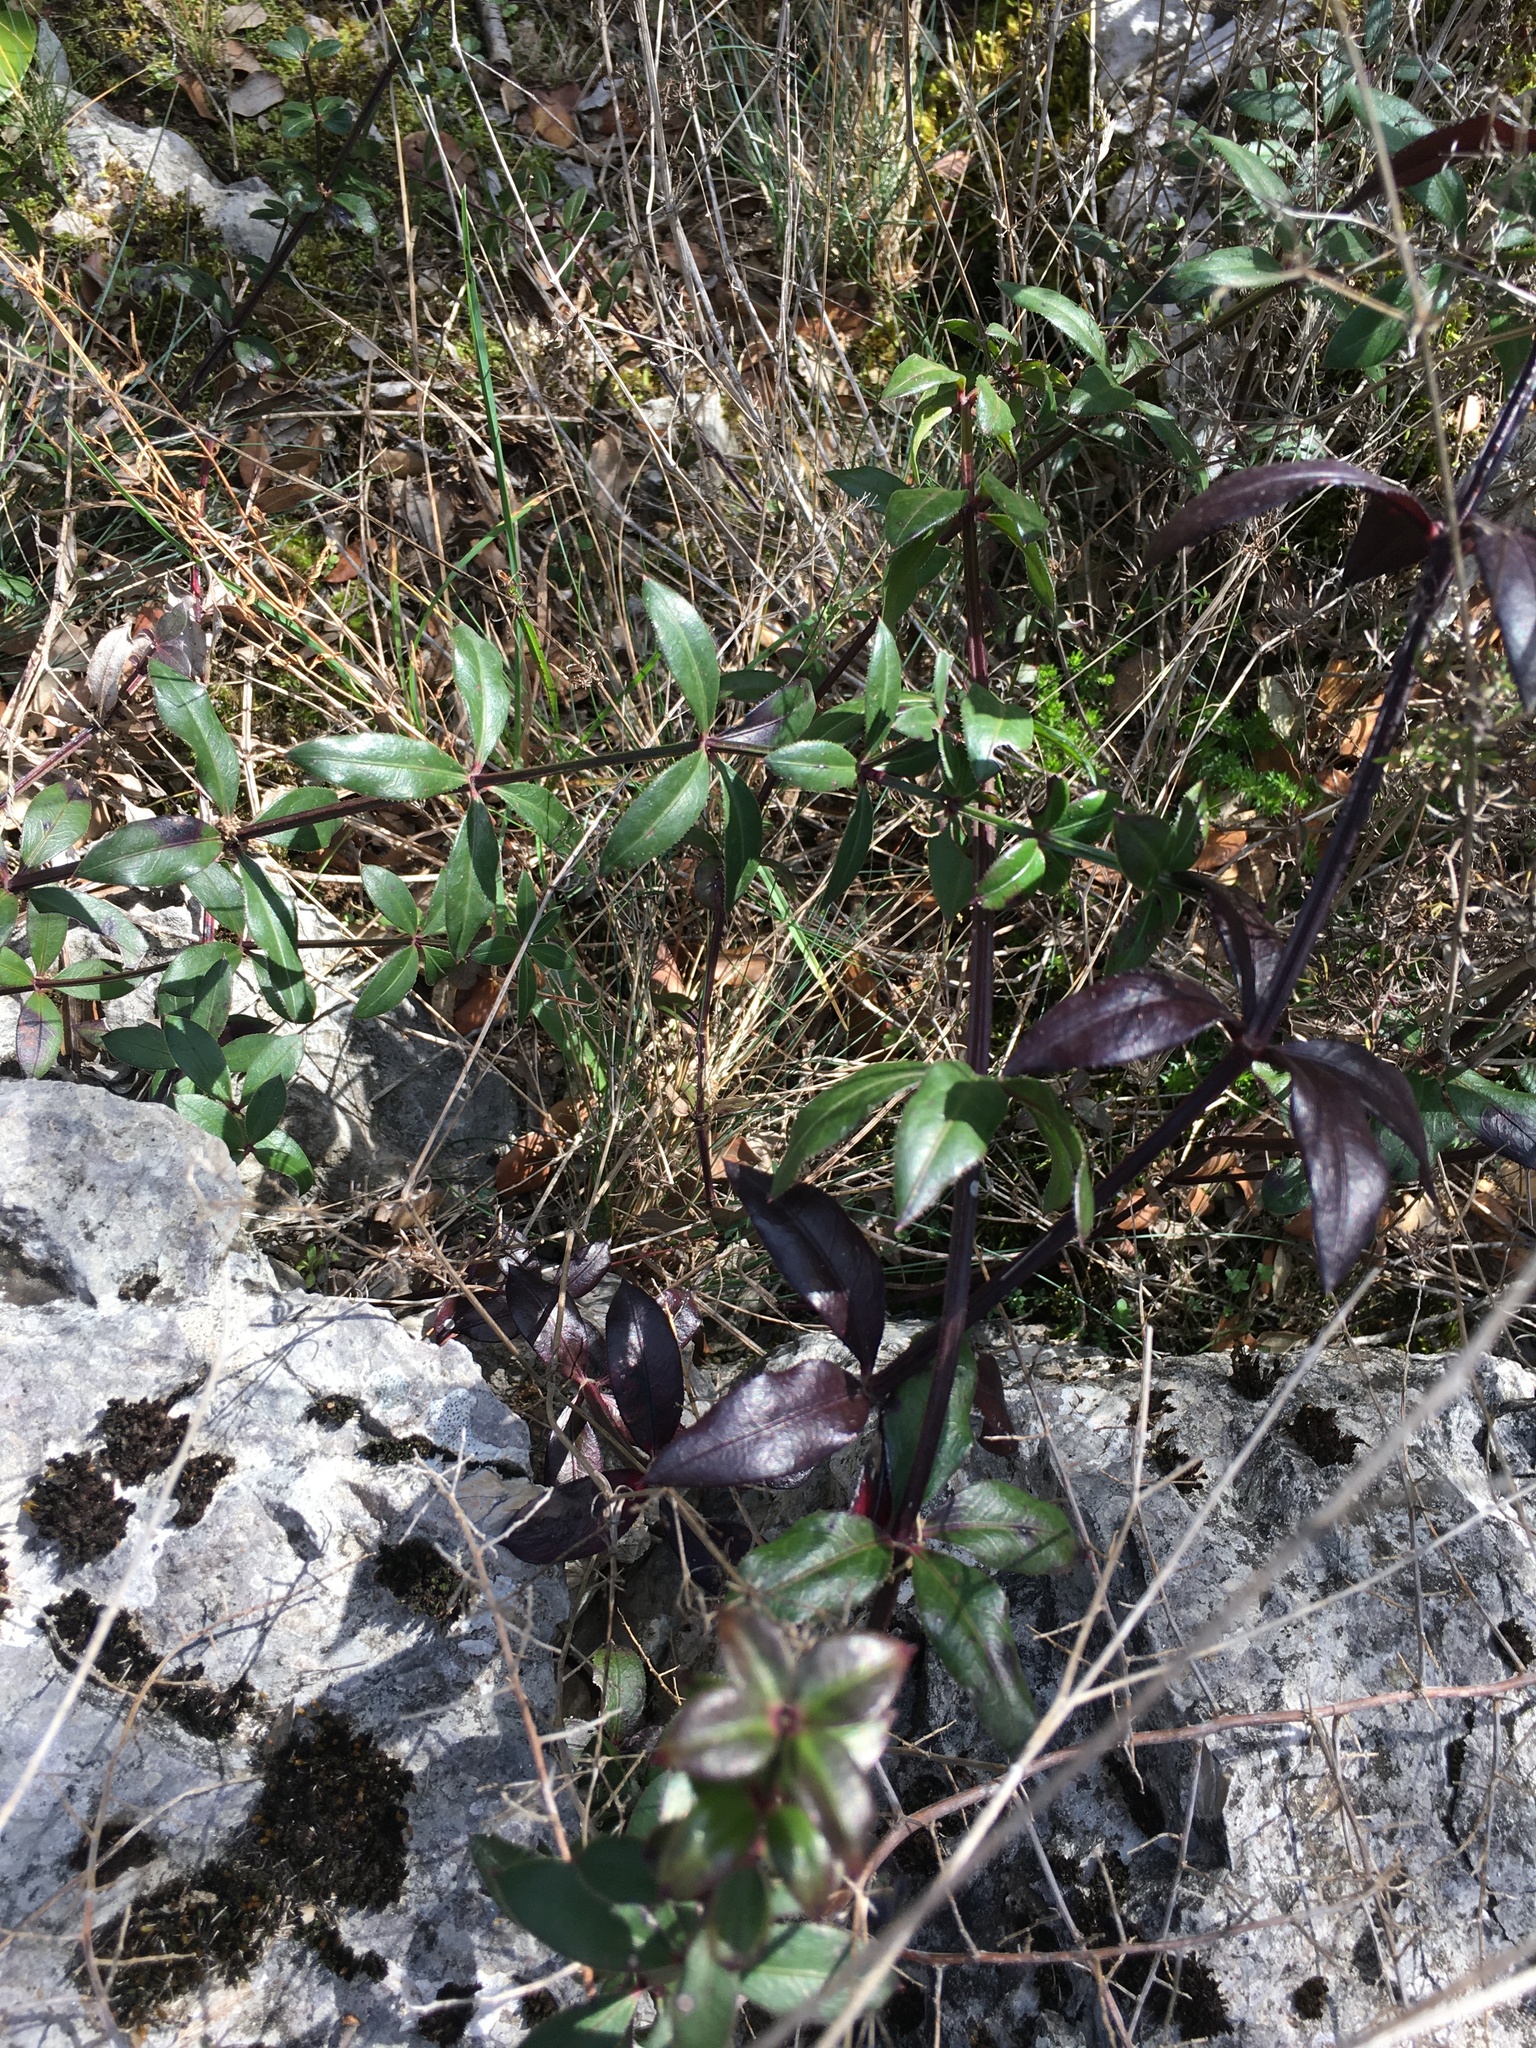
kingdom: Plantae
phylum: Tracheophyta
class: Magnoliopsida
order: Gentianales
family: Rubiaceae
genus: Rubia
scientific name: Rubia peregrina
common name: Wild madder
